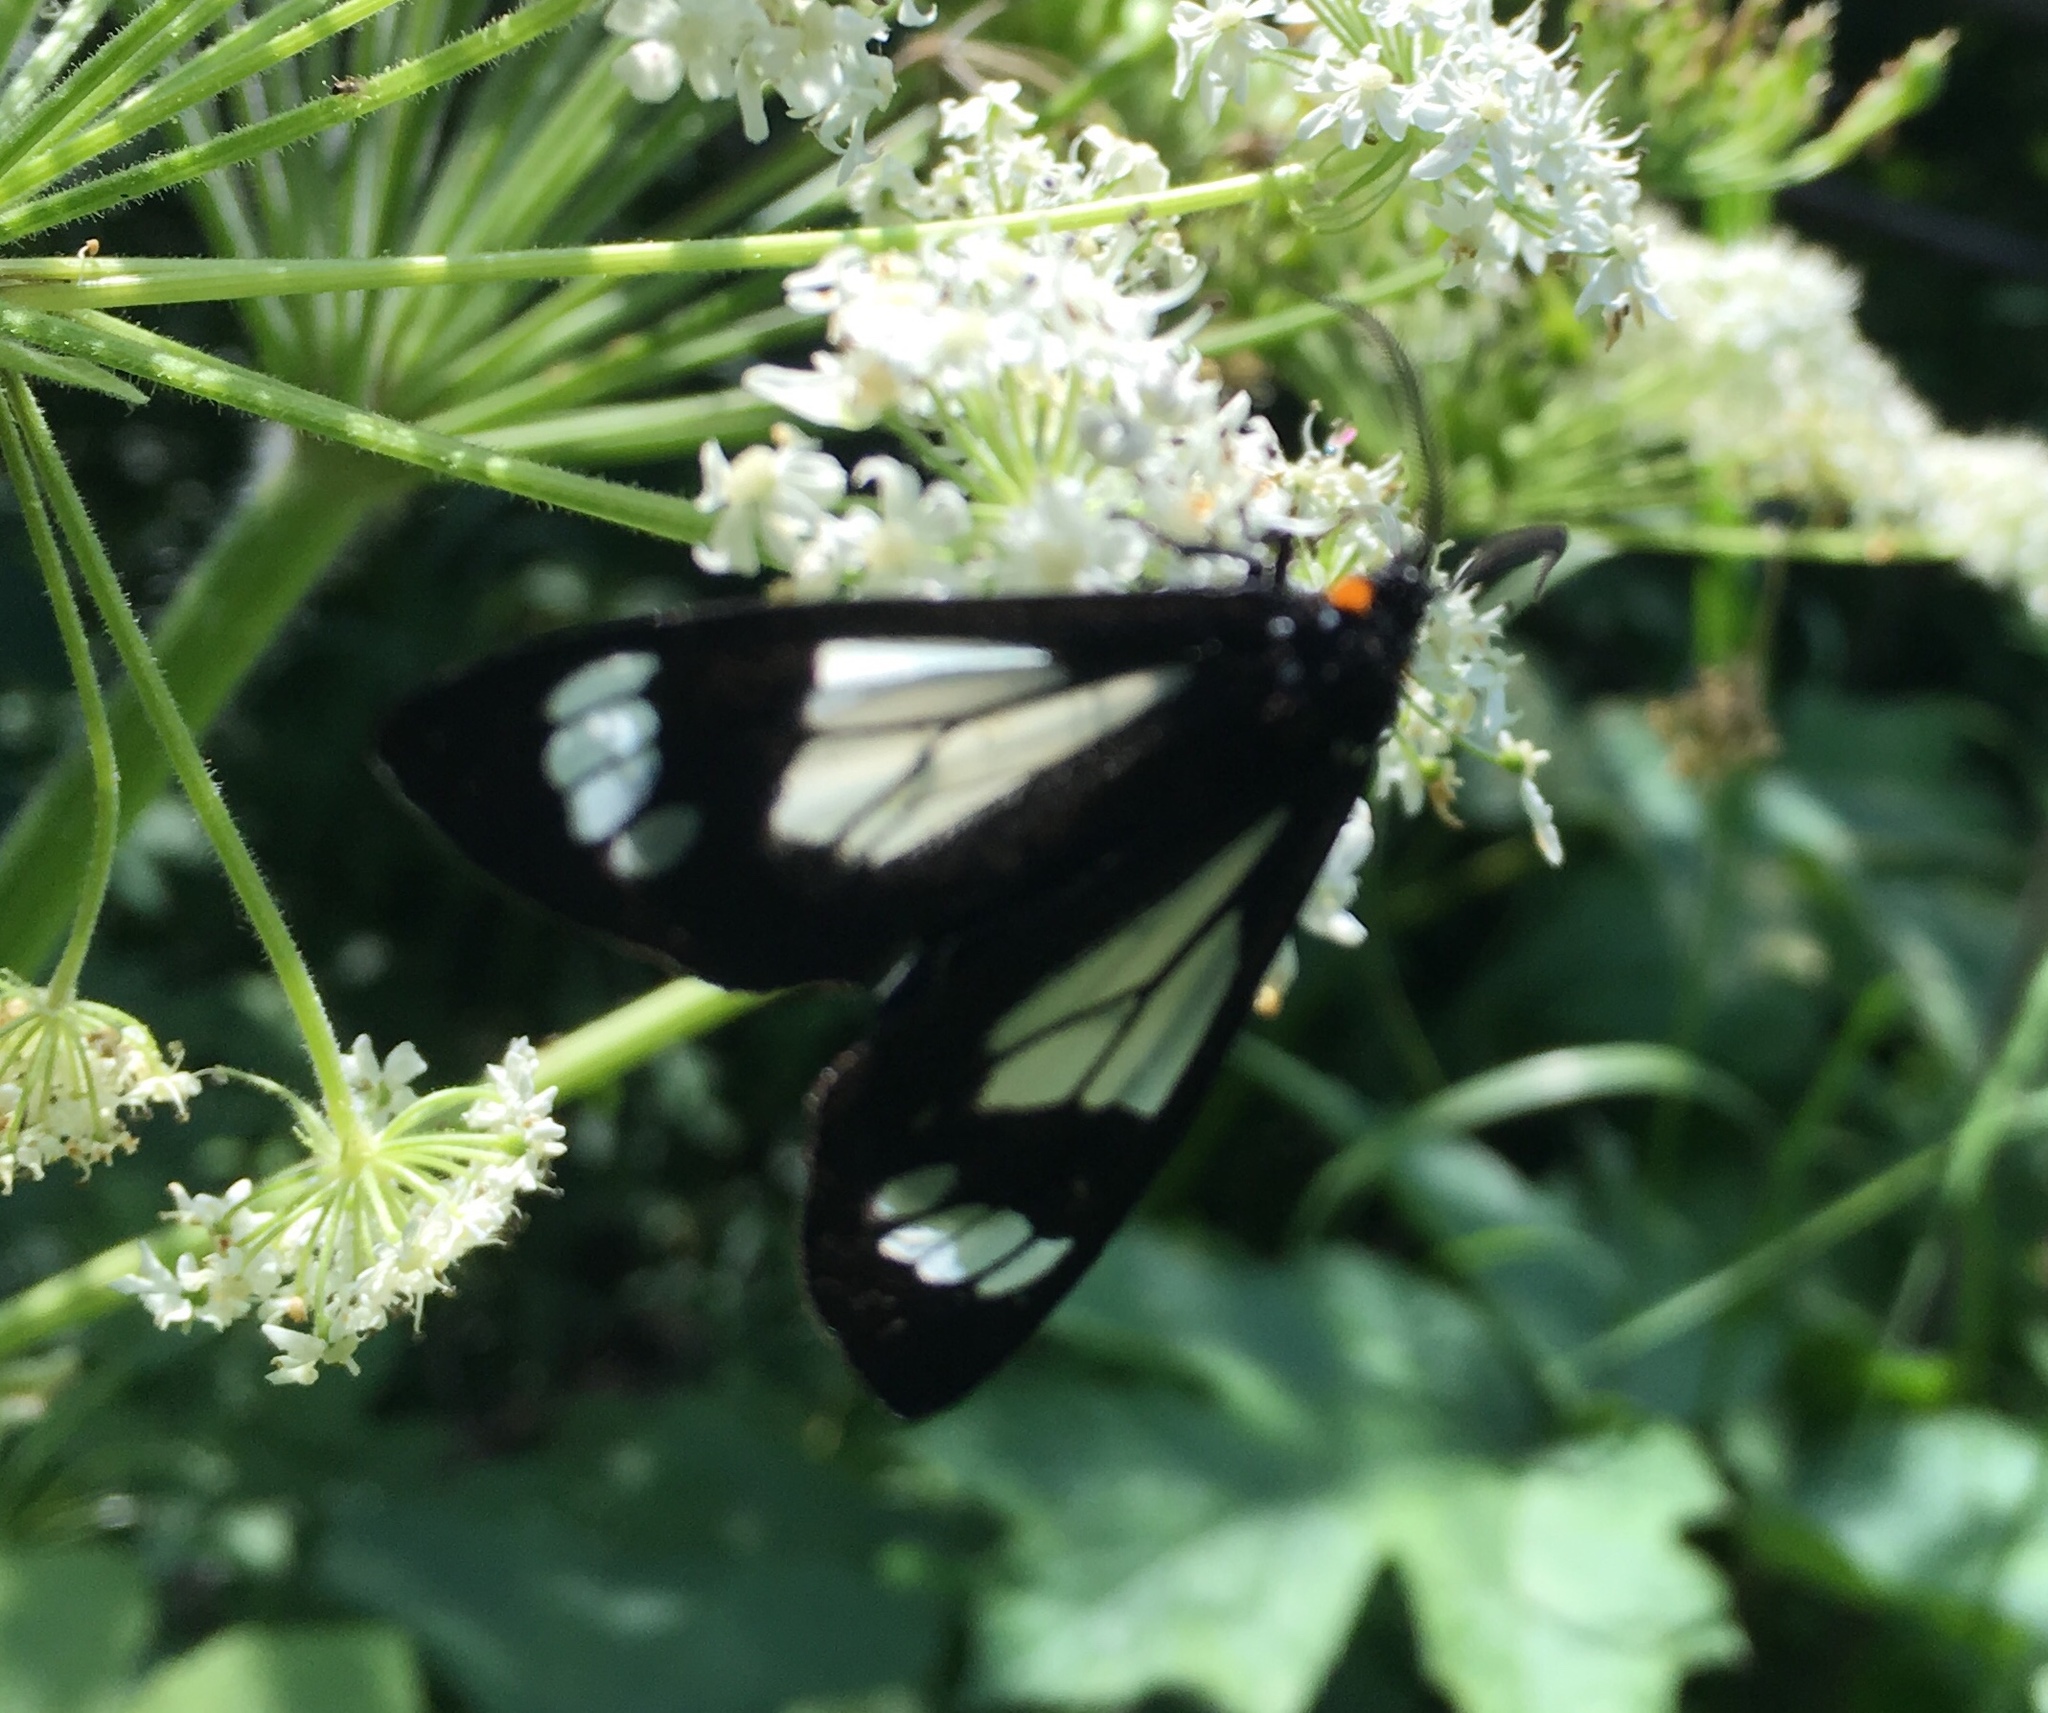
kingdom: Animalia
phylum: Arthropoda
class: Insecta
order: Lepidoptera
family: Erebidae
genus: Gnophaela
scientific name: Gnophaela vermiculata
